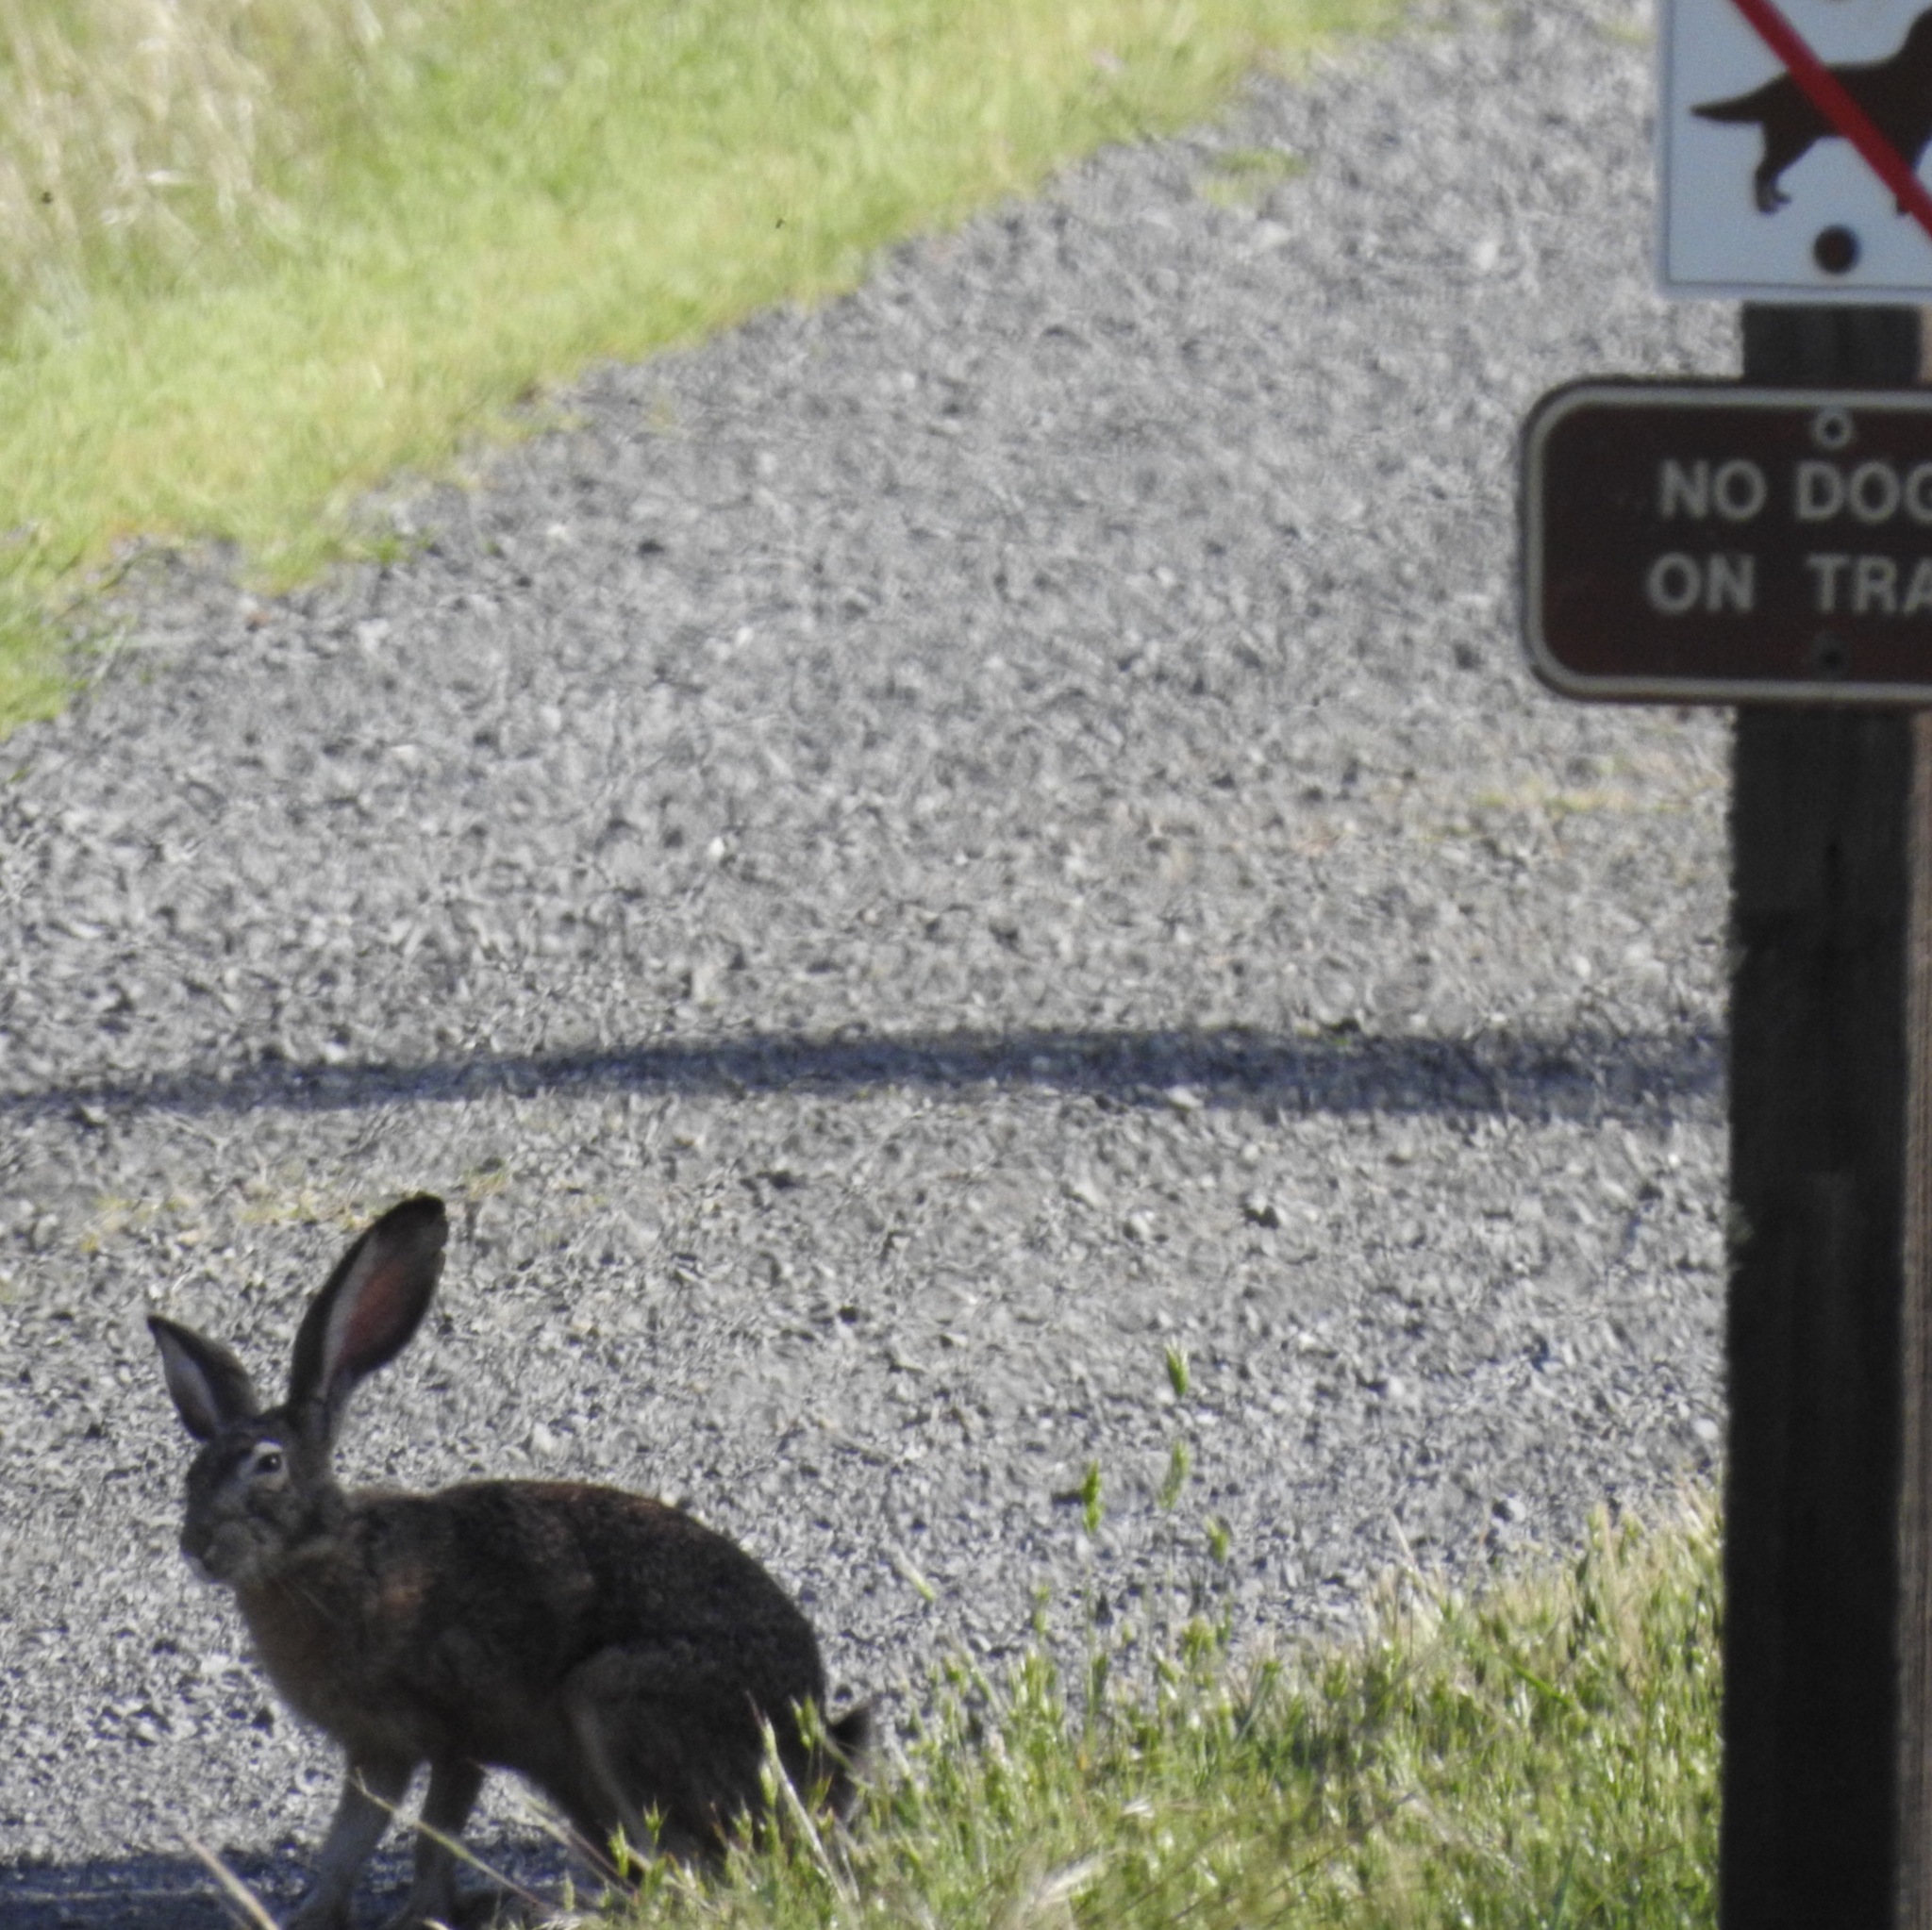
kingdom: Animalia
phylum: Chordata
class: Mammalia
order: Lagomorpha
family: Leporidae
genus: Lepus
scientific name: Lepus californicus
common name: Black-tailed jackrabbit
